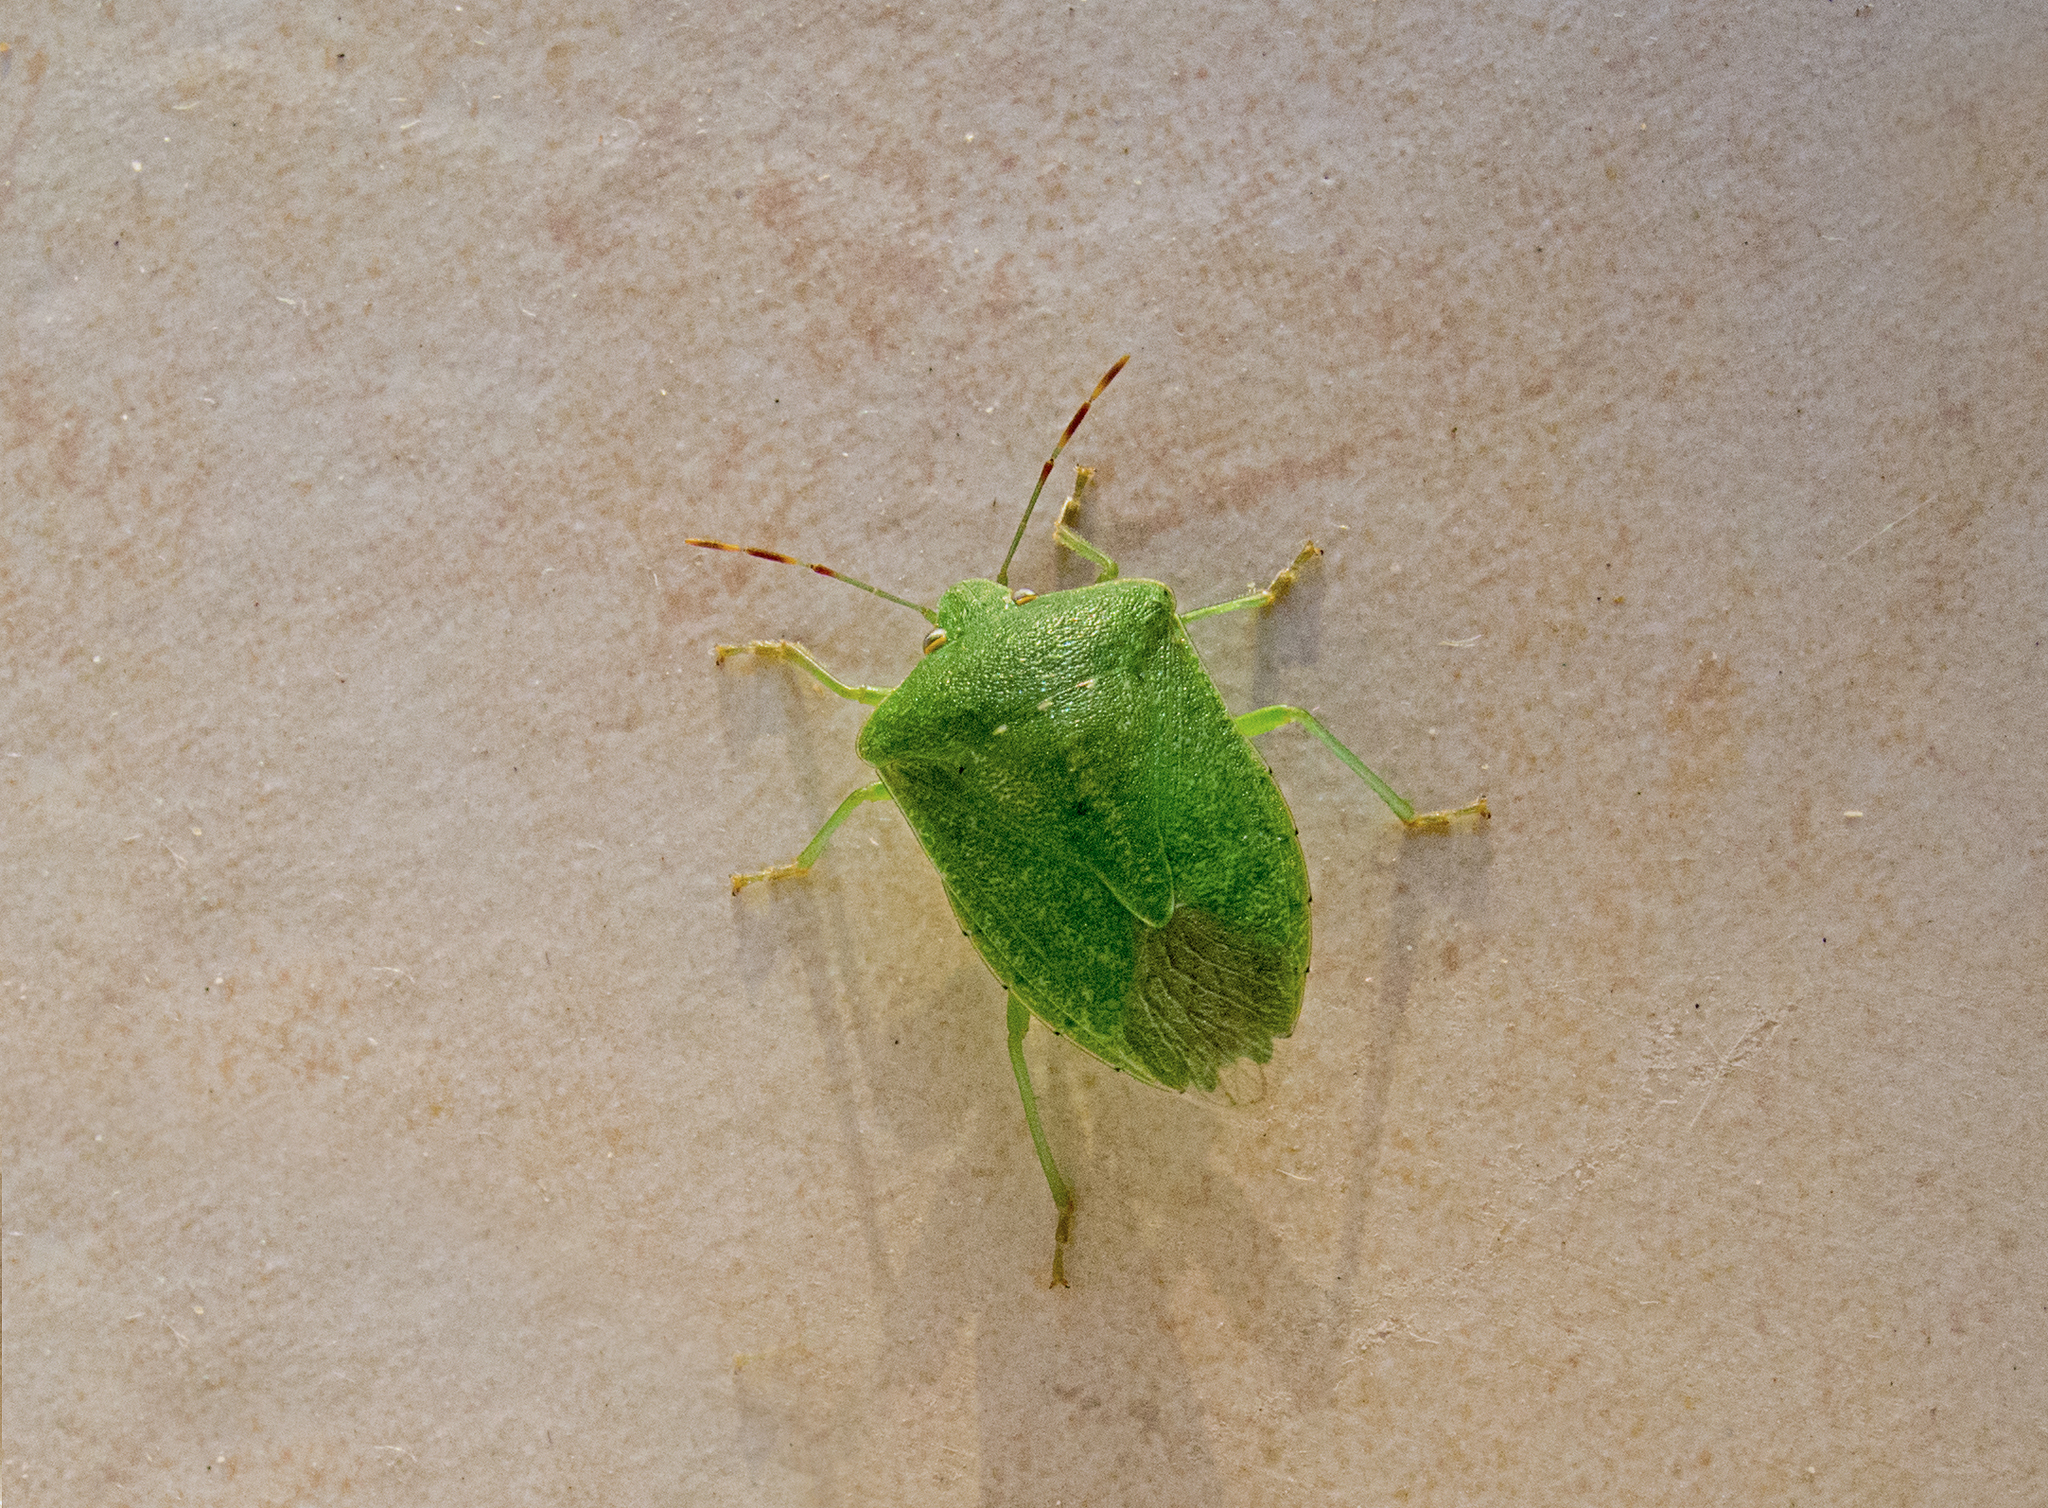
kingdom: Animalia
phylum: Arthropoda
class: Insecta
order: Hemiptera
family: Pentatomidae
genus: Nezara
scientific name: Nezara viridula
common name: Southern green stink bug
